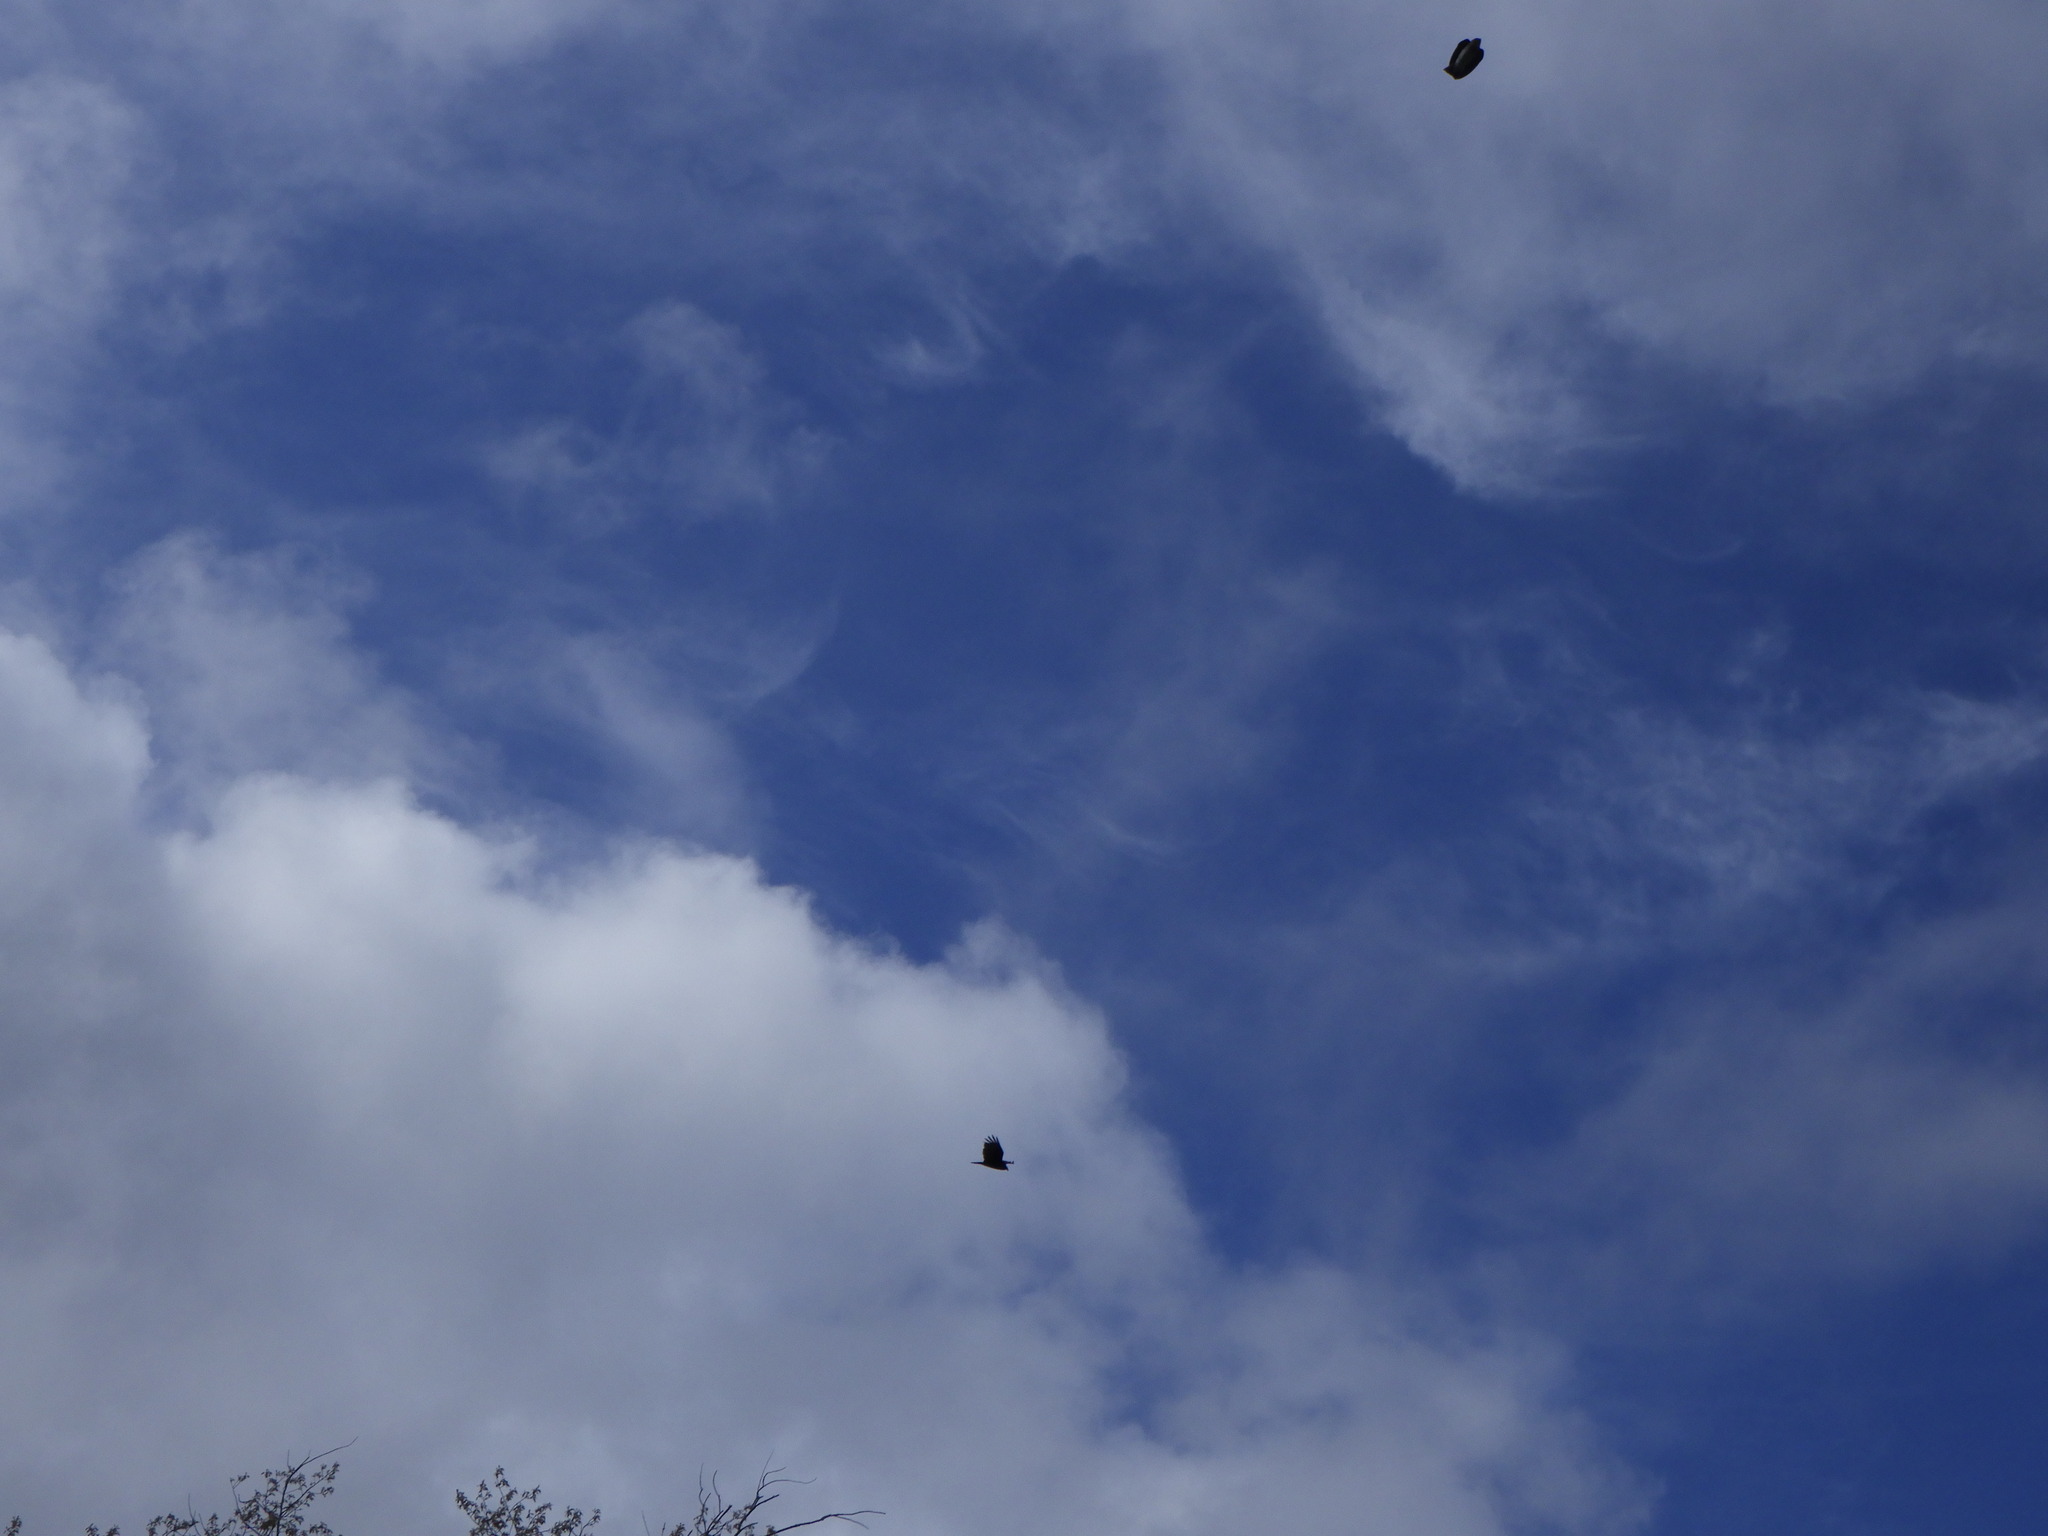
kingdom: Animalia
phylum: Chordata
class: Aves
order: Accipitriformes
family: Cathartidae
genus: Cathartes
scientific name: Cathartes aura
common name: Turkey vulture
